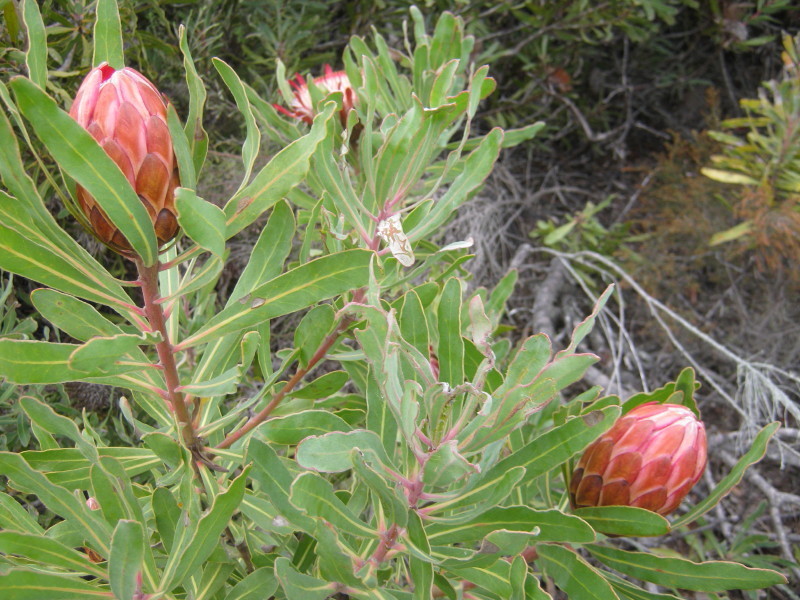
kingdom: Plantae
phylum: Tracheophyta
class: Magnoliopsida
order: Proteales
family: Proteaceae
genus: Protea
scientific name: Protea susannae
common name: Foetid-leaf sugarbush
